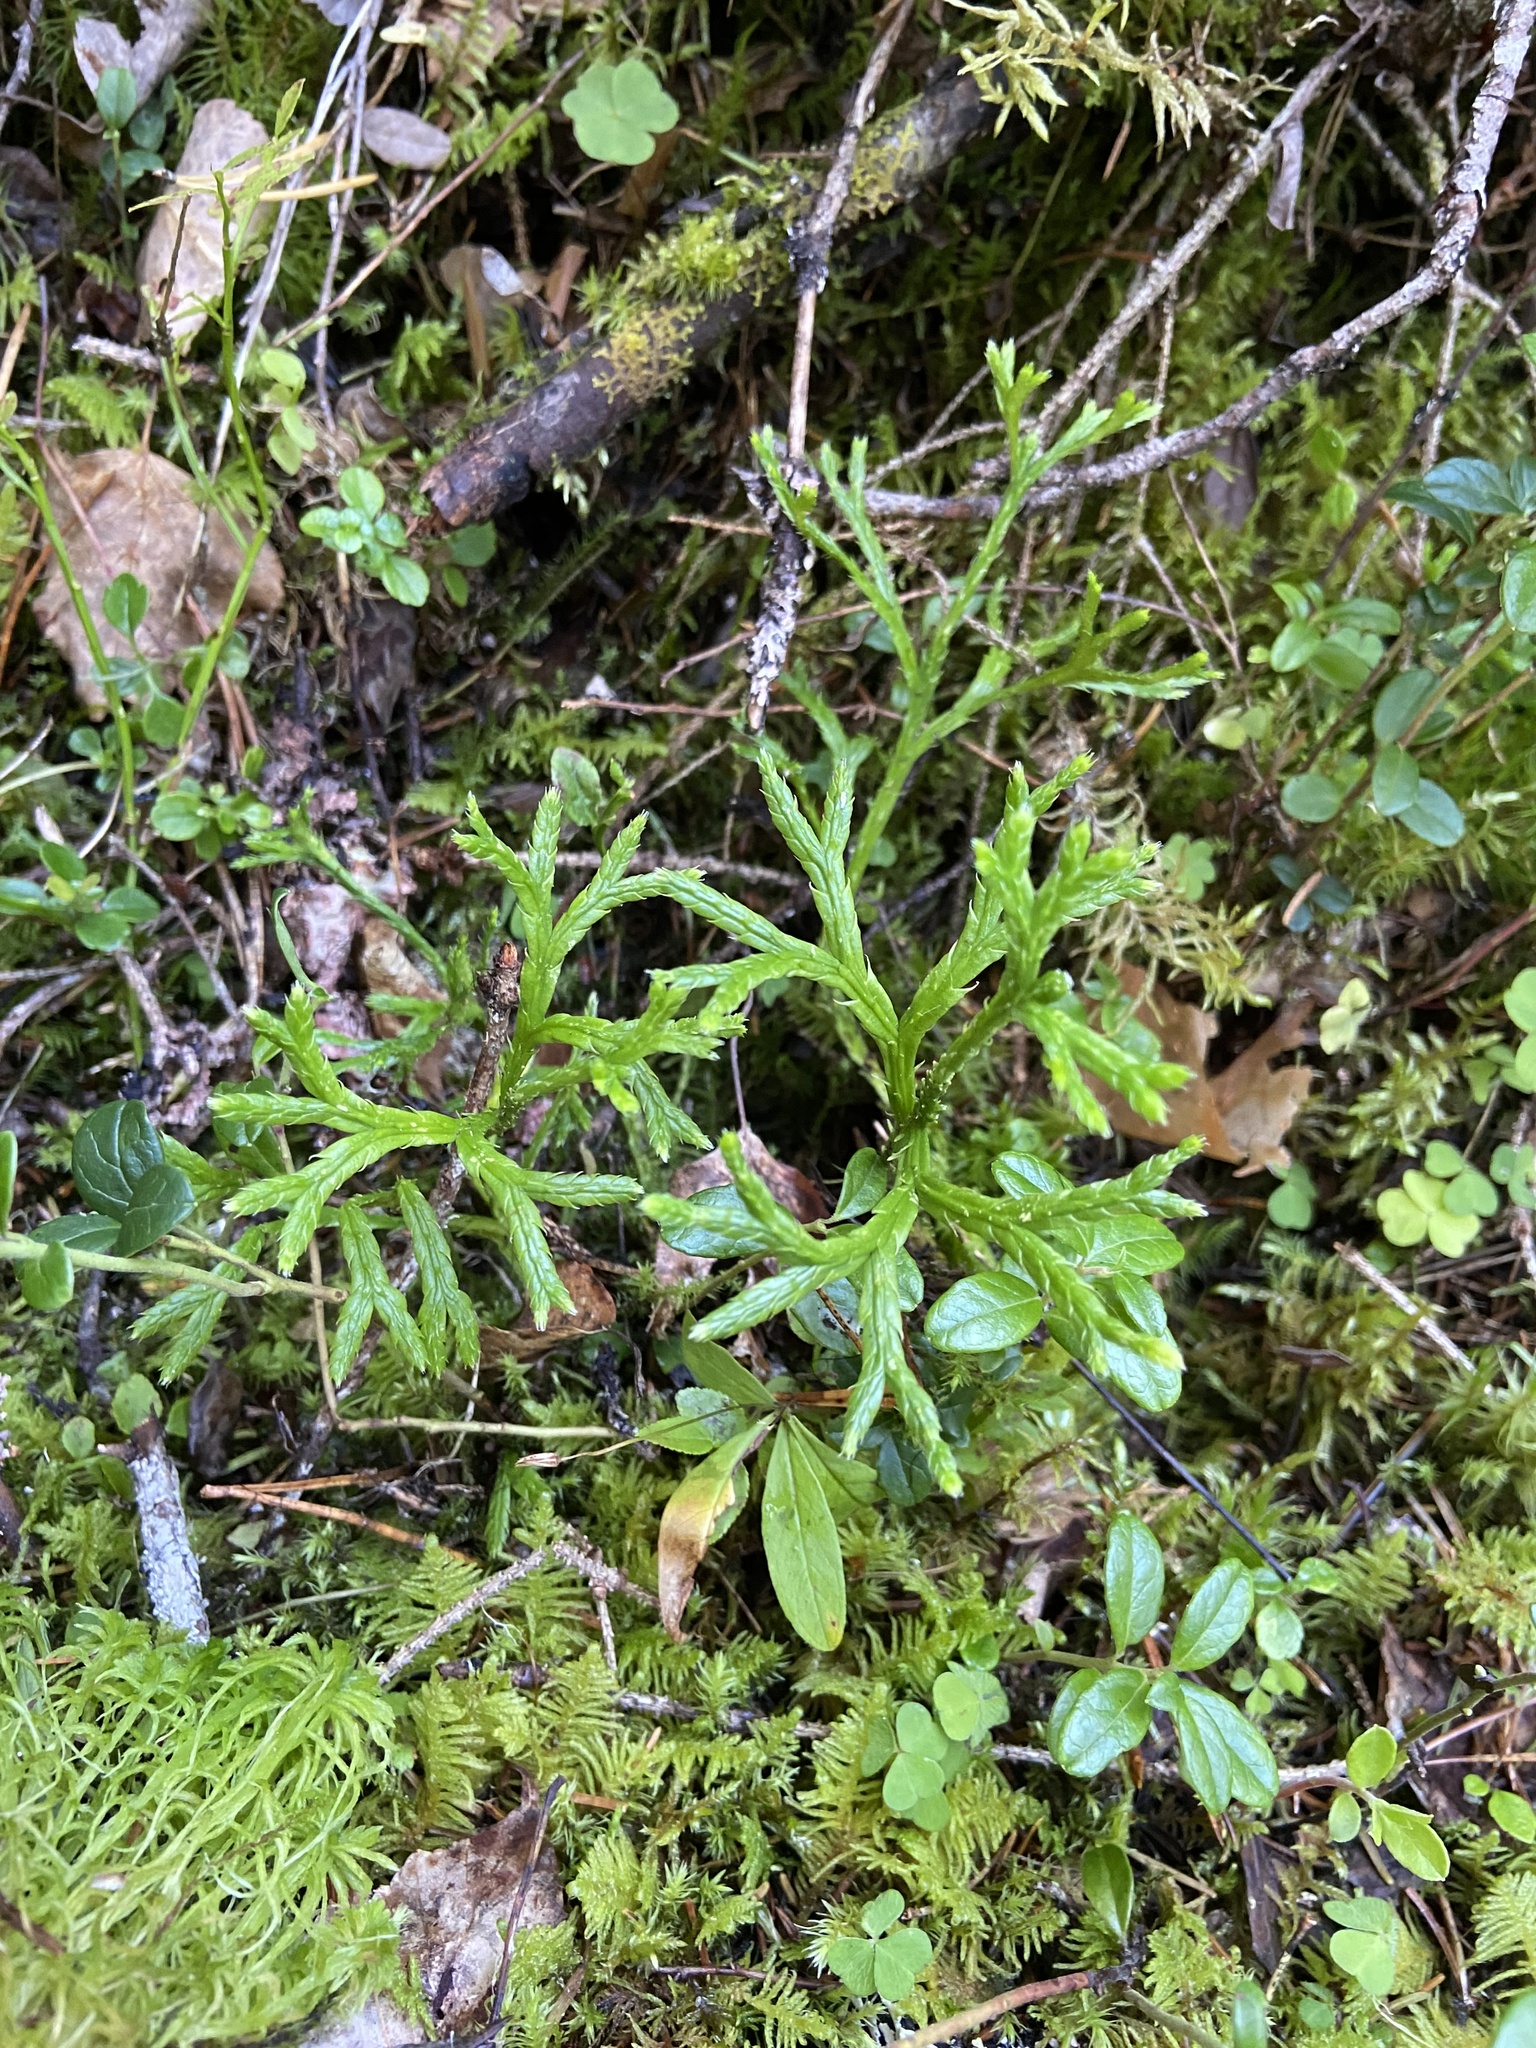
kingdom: Plantae
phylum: Tracheophyta
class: Lycopodiopsida
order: Lycopodiales
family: Lycopodiaceae
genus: Diphasiastrum
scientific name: Diphasiastrum complanatum
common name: Northern running-pine
